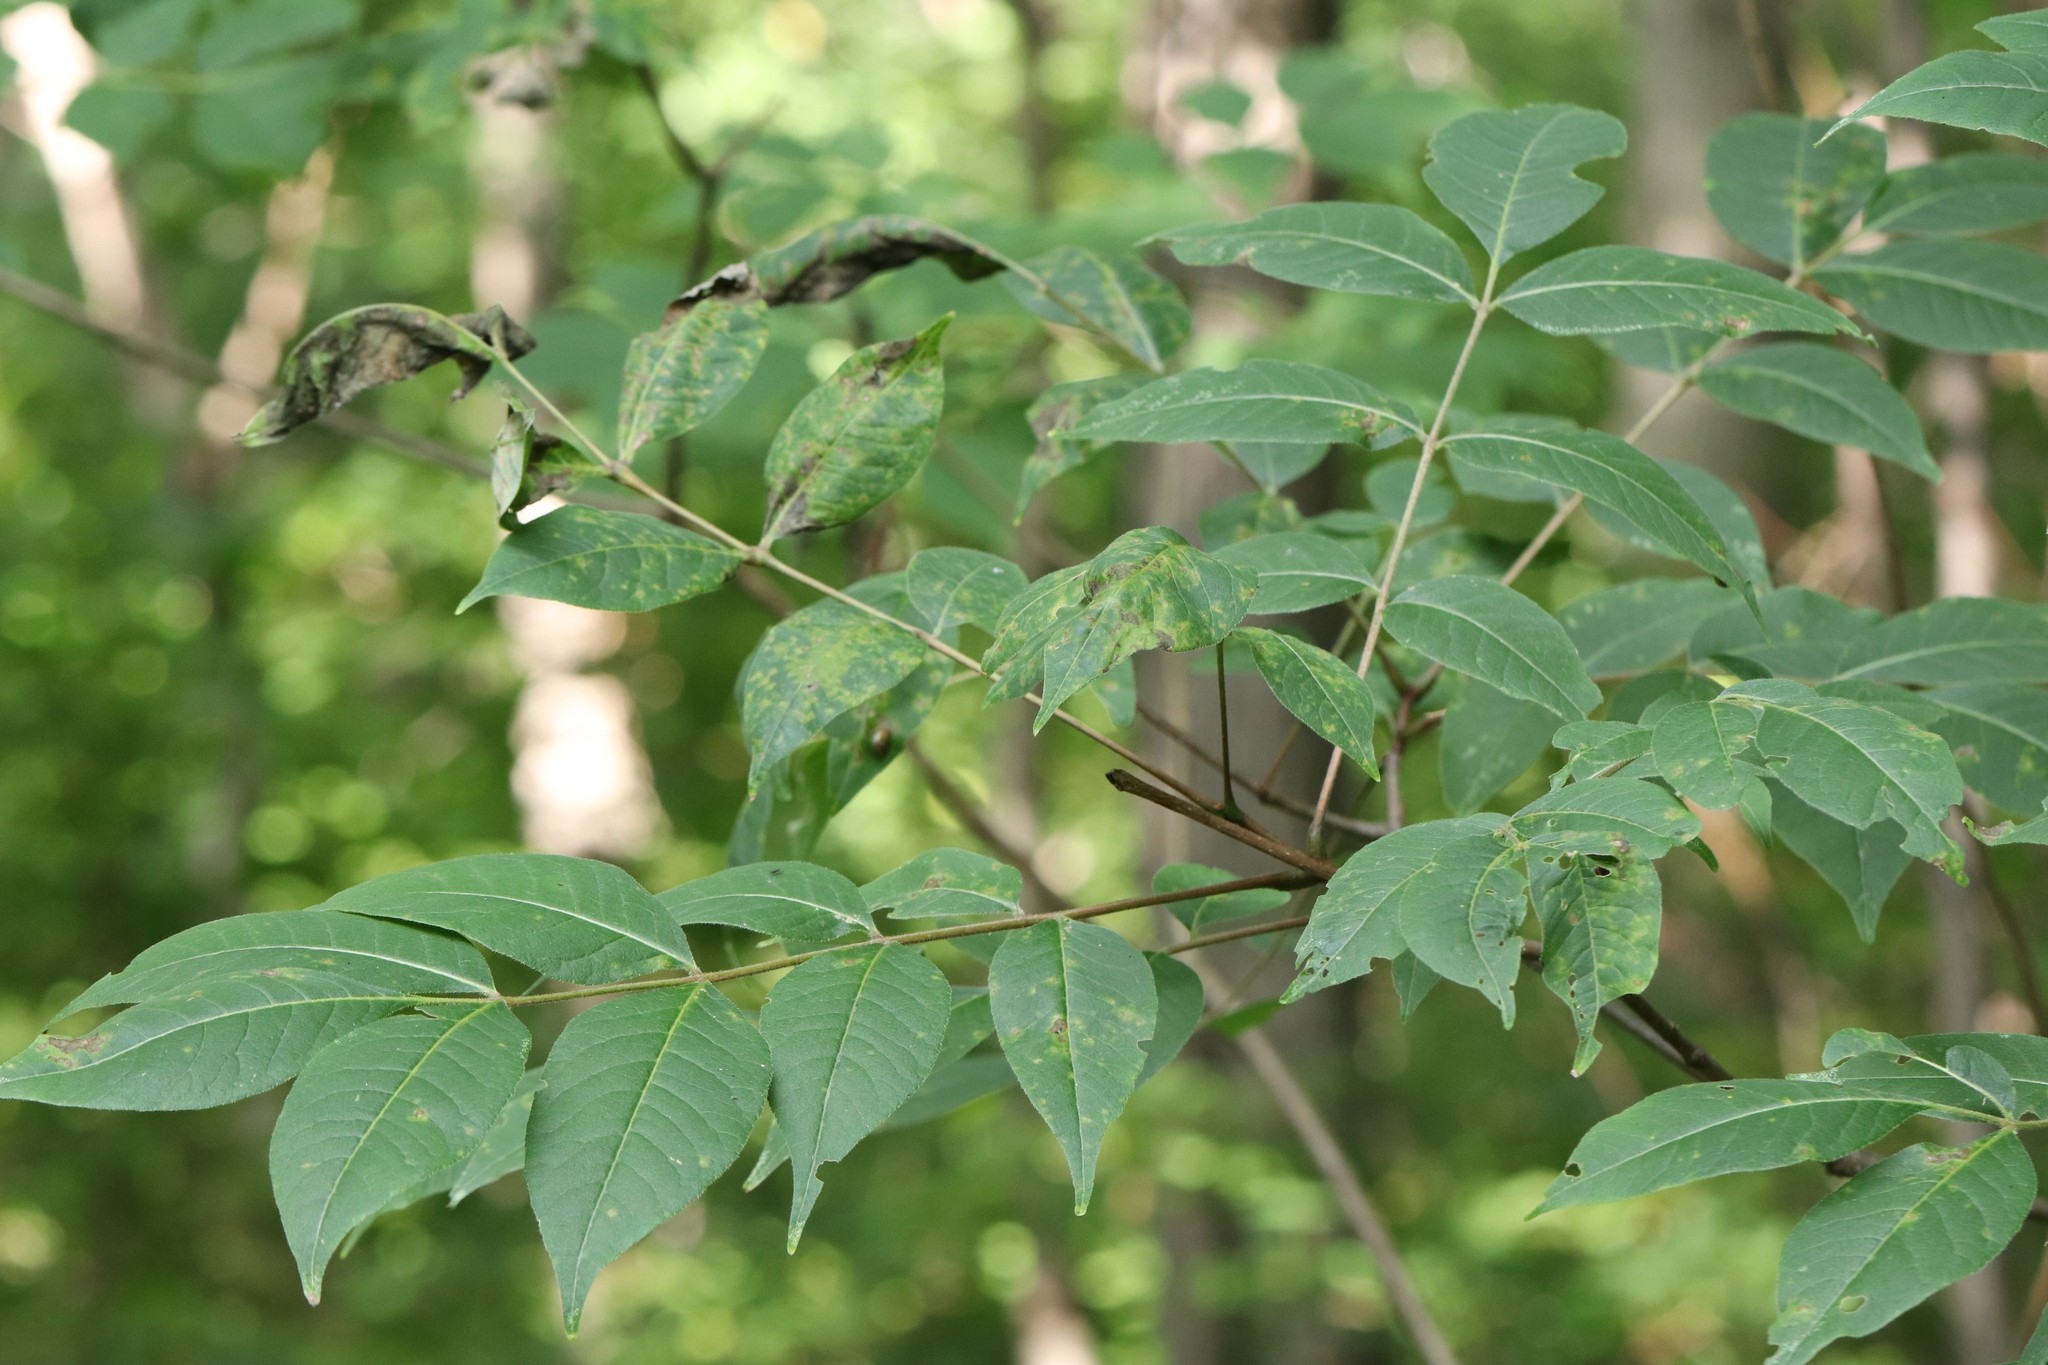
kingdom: Plantae
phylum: Tracheophyta
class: Magnoliopsida
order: Sapindales
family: Rutaceae
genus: Phellodendron
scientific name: Phellodendron amurense
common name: Amur corktree
